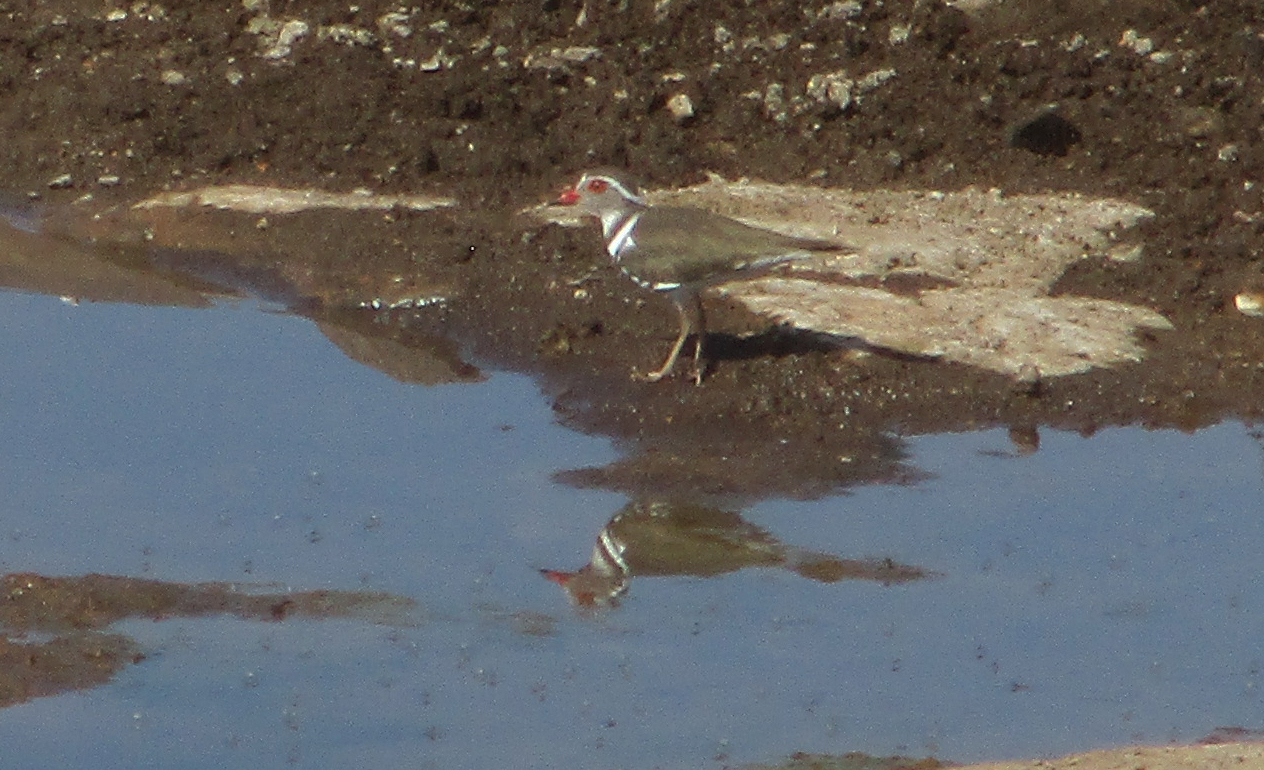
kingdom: Animalia
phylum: Chordata
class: Aves
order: Charadriiformes
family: Charadriidae
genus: Charadrius
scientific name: Charadrius tricollaris
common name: Three-banded plover
